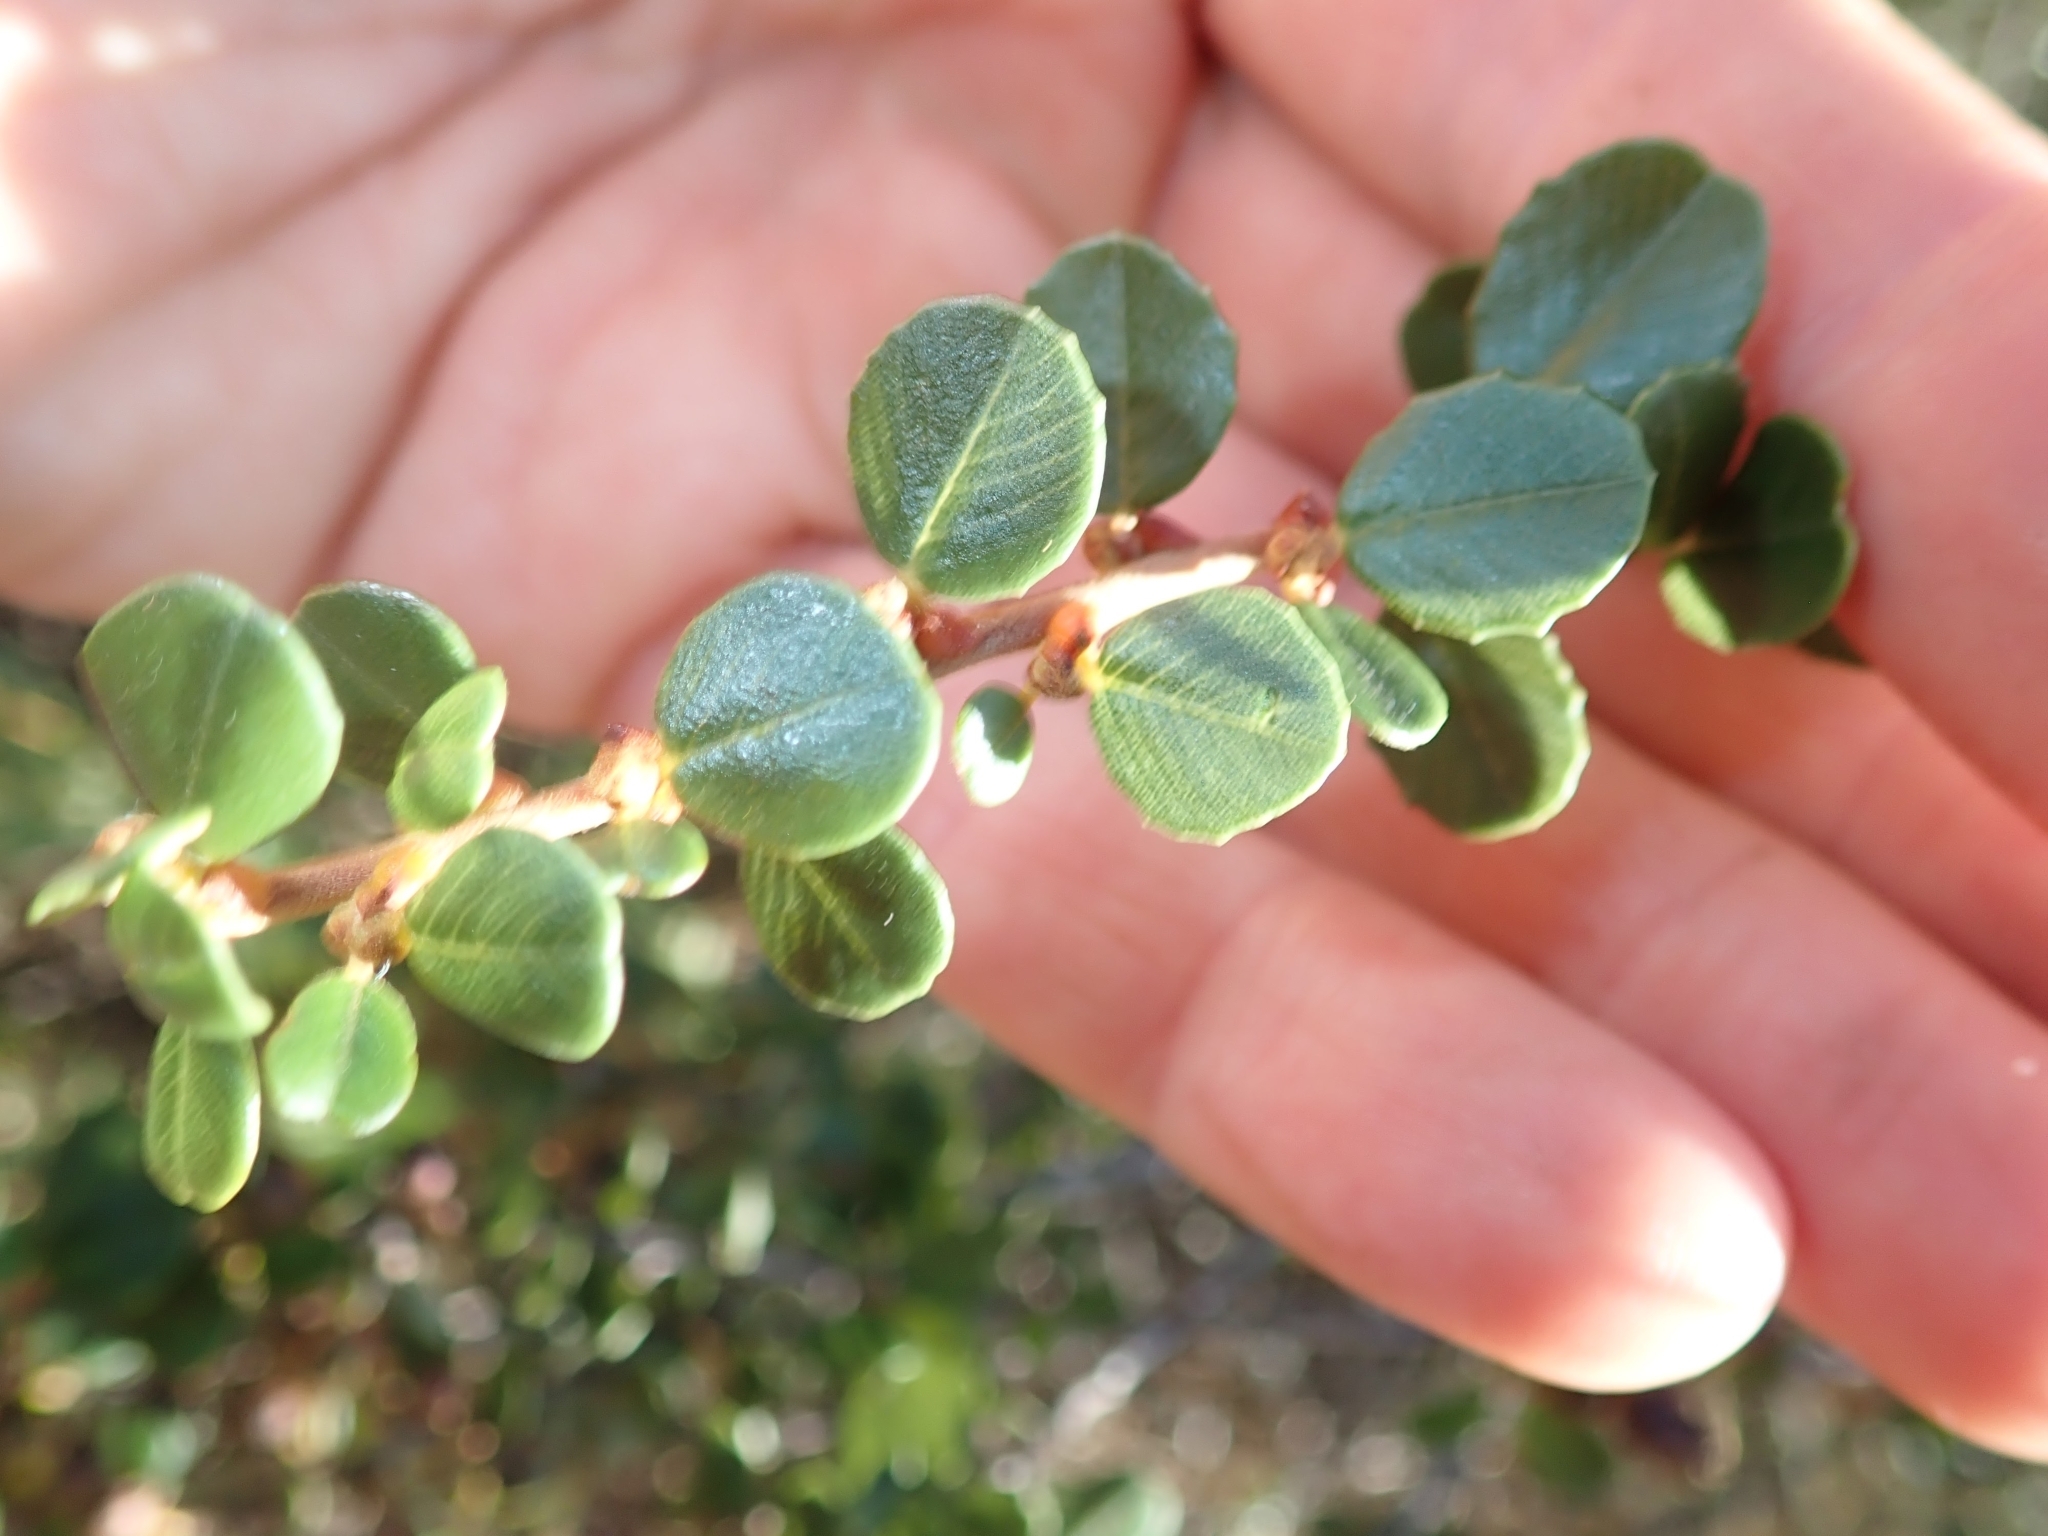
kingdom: Plantae
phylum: Tracheophyta
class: Magnoliopsida
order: Rosales
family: Rhamnaceae
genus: Ceanothus
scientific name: Ceanothus verrucosus
